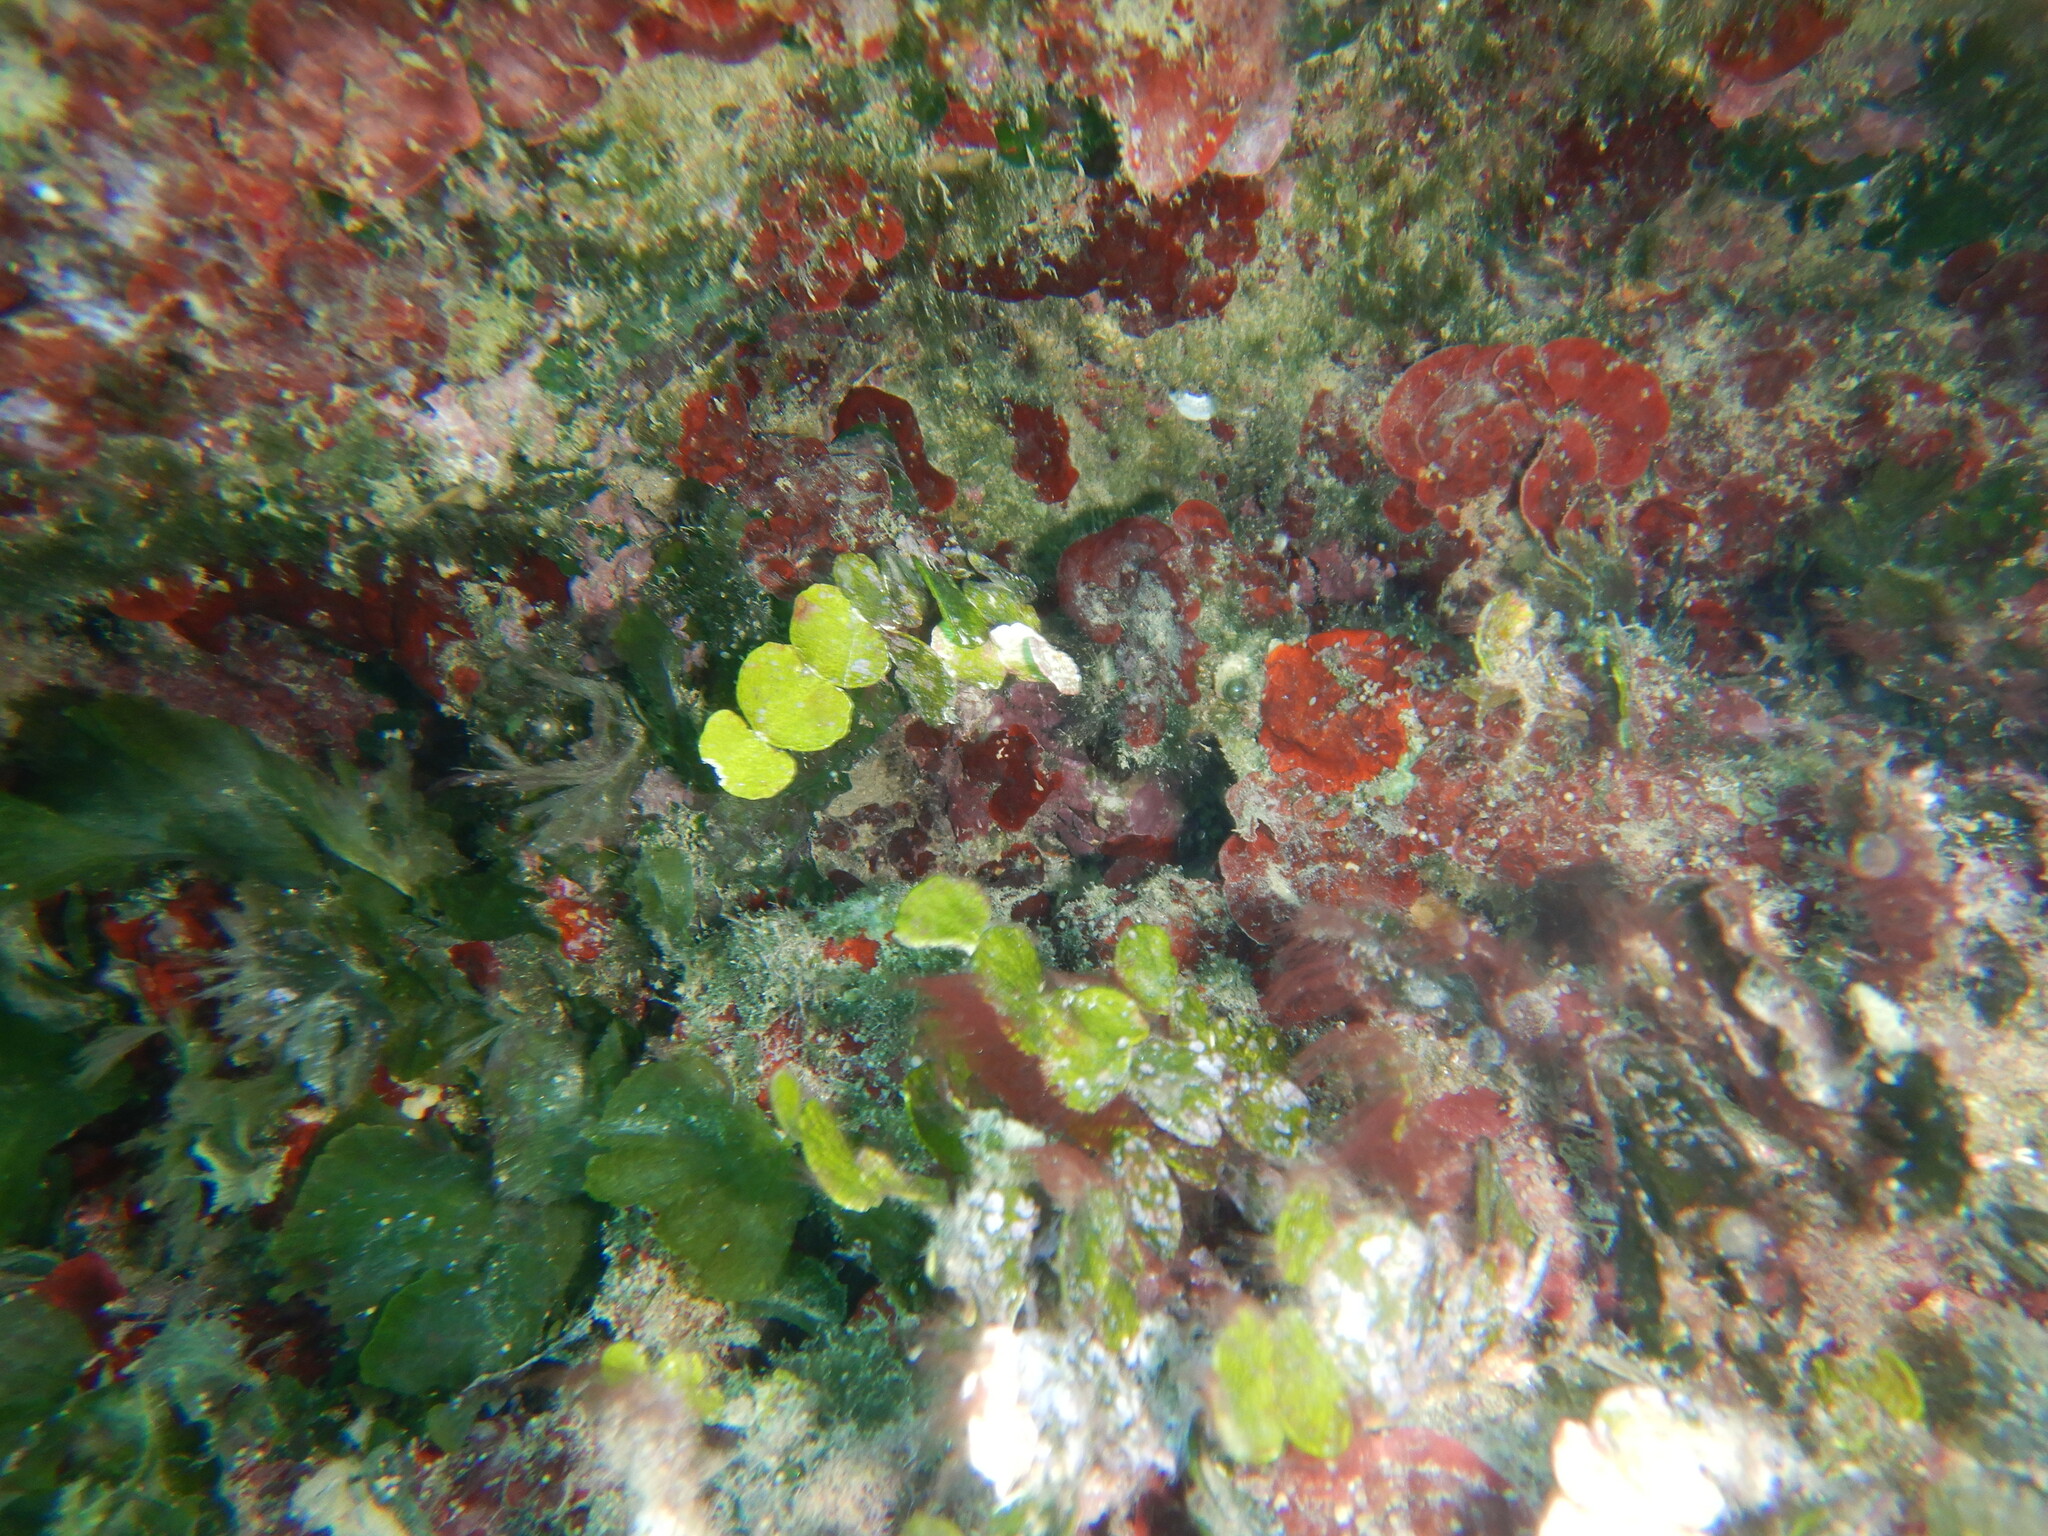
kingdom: Plantae
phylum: Chlorophyta
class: Ulvophyceae
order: Bryopsidales
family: Halimedaceae
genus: Halimeda
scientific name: Halimeda tuna
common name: Stalked lettuce leaf algae
